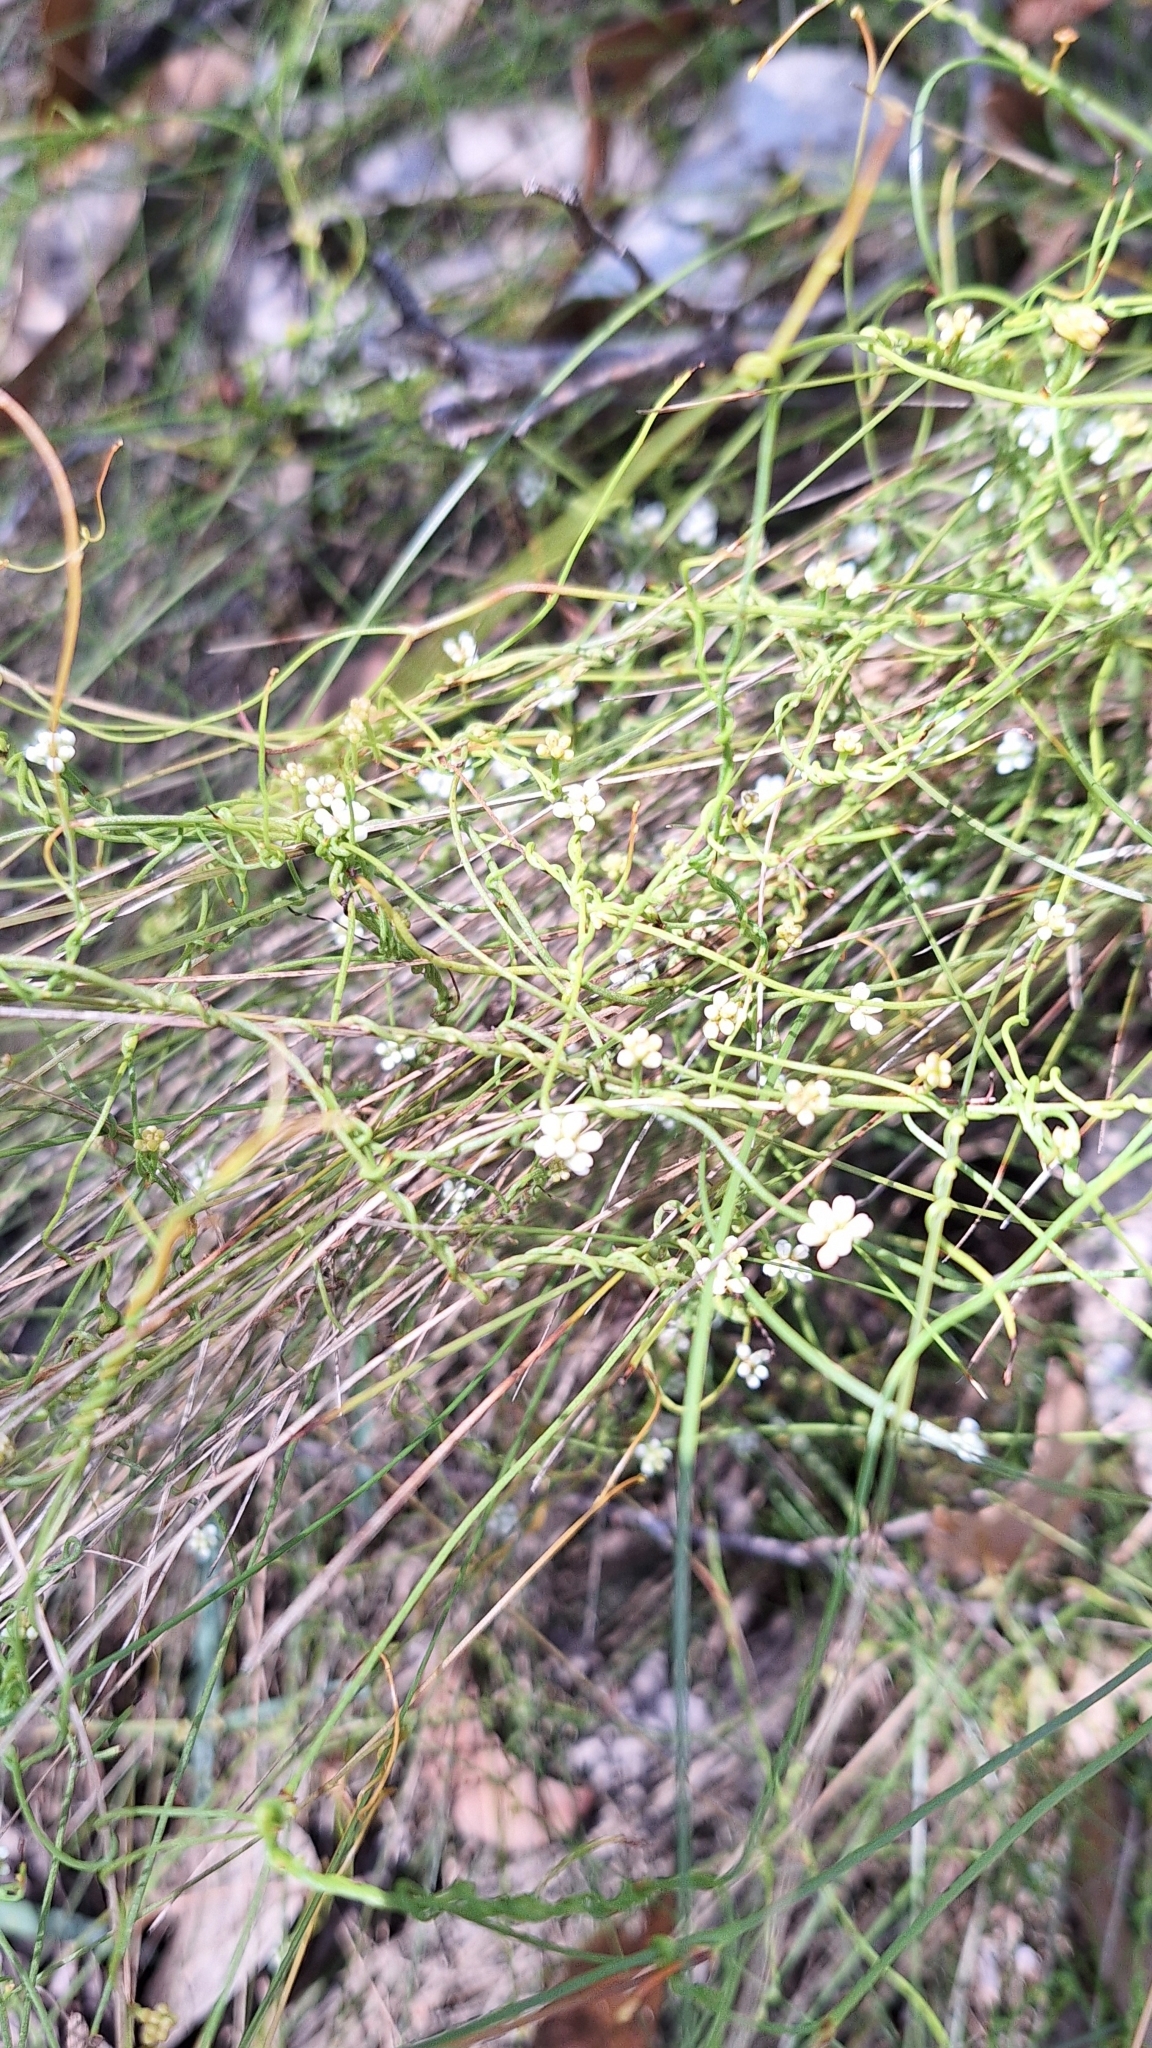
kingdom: Plantae
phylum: Tracheophyta
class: Magnoliopsida
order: Laurales
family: Lauraceae
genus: Cassytha
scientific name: Cassytha glabella
